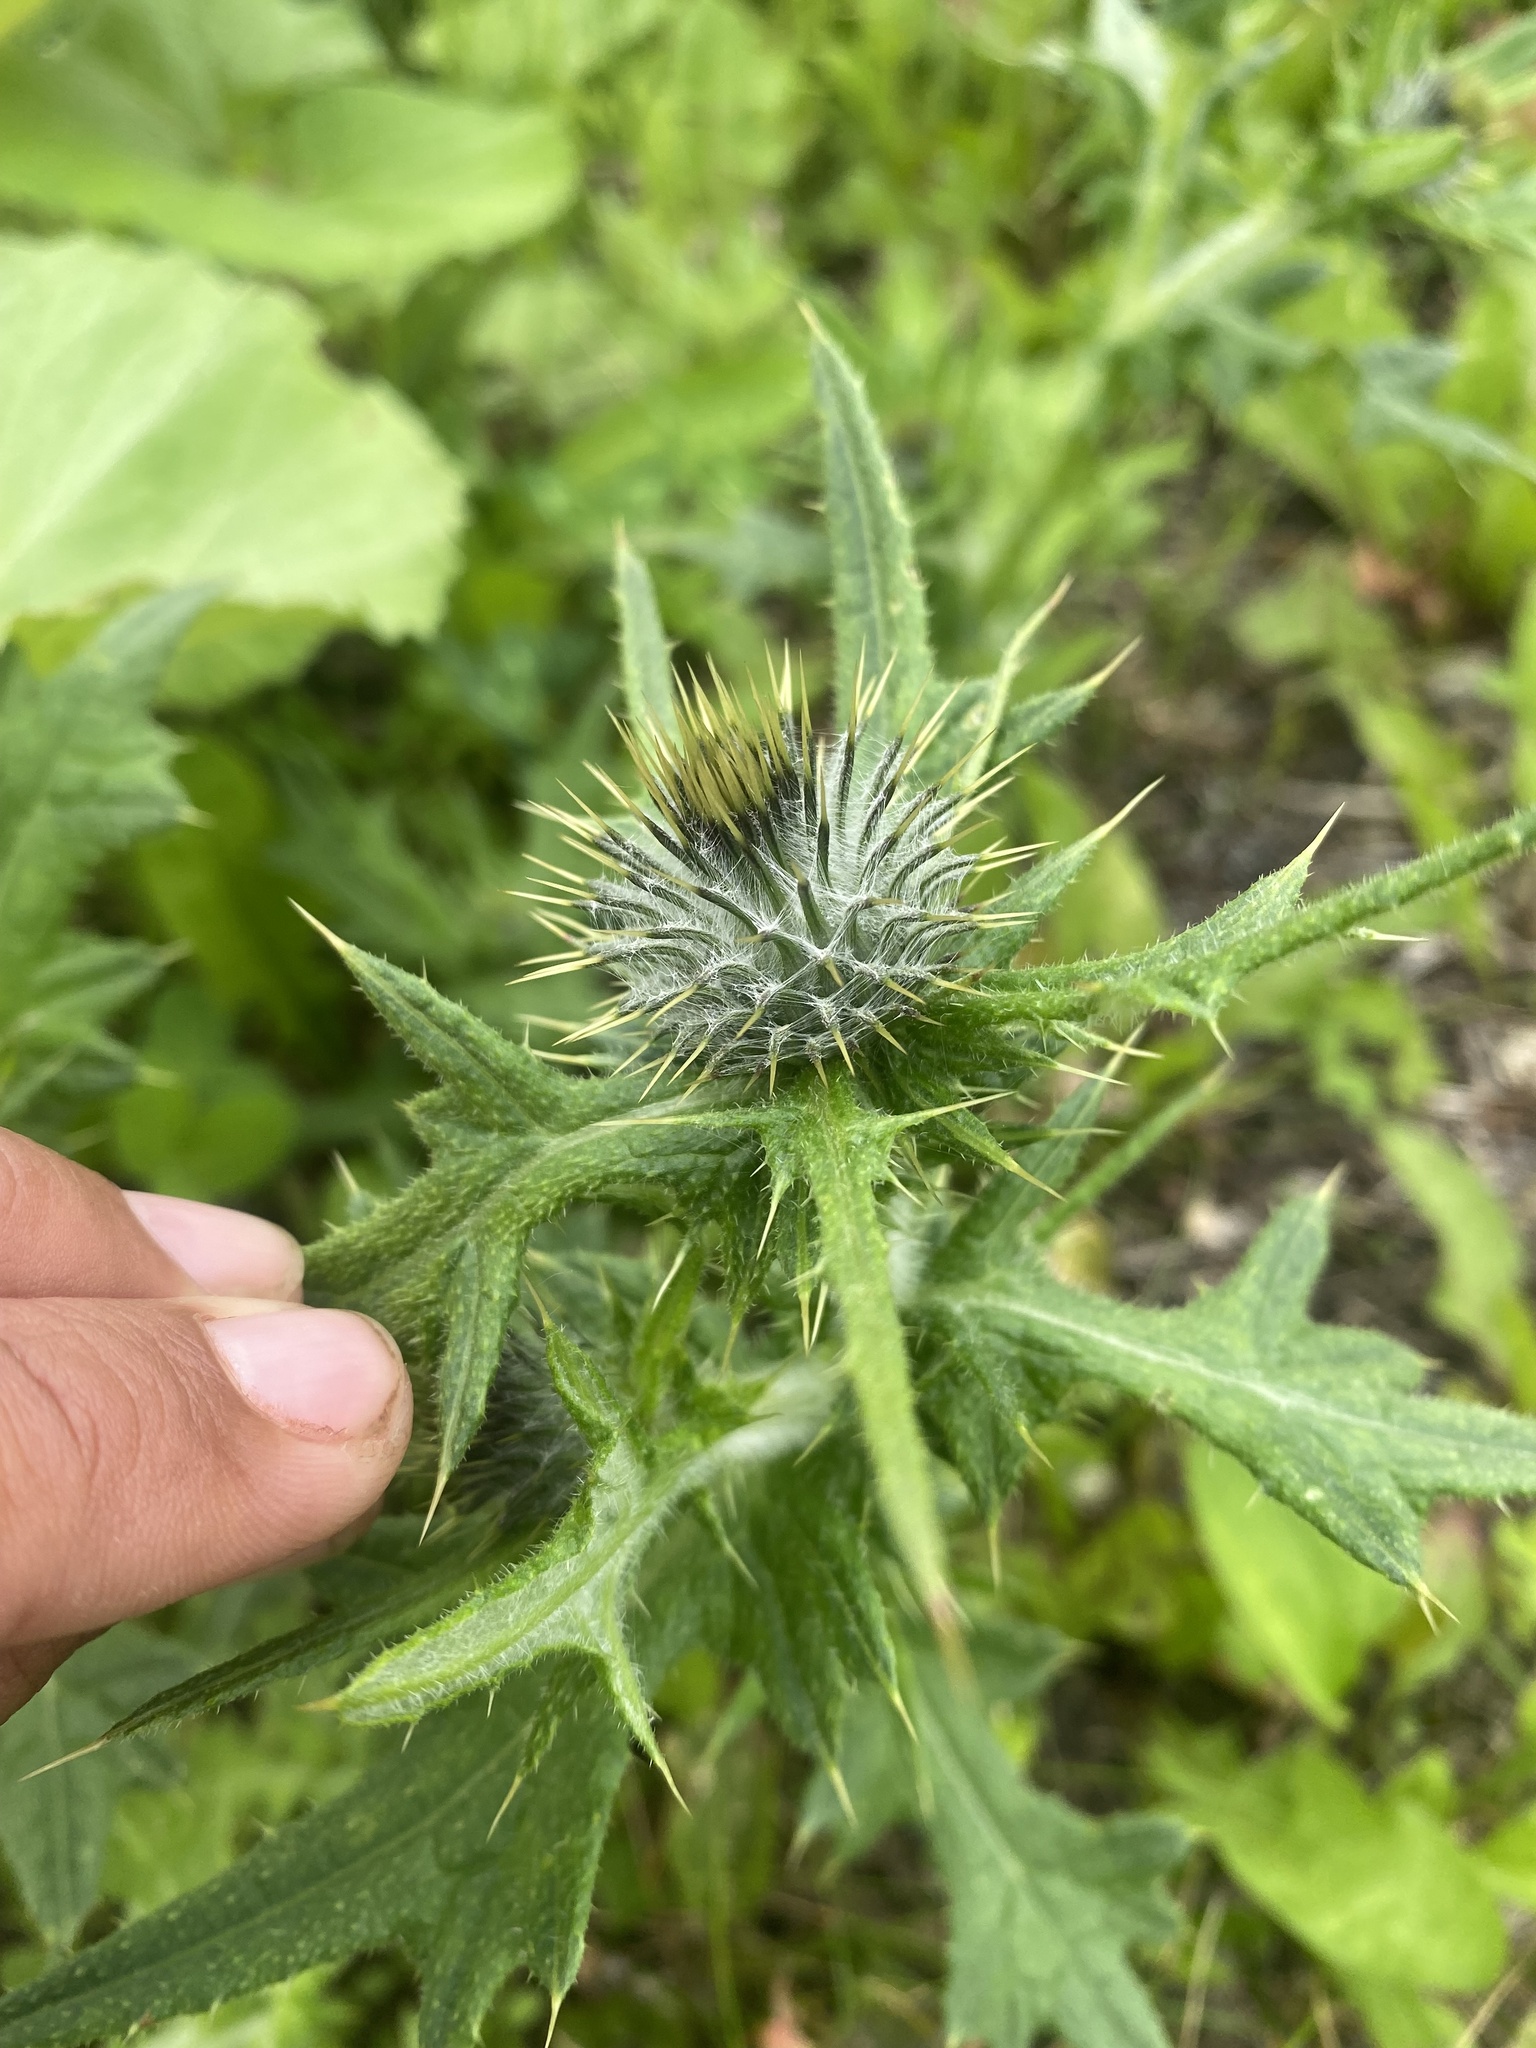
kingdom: Plantae
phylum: Tracheophyta
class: Magnoliopsida
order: Asterales
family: Asteraceae
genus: Cirsium
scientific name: Cirsium vulgare
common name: Bull thistle
